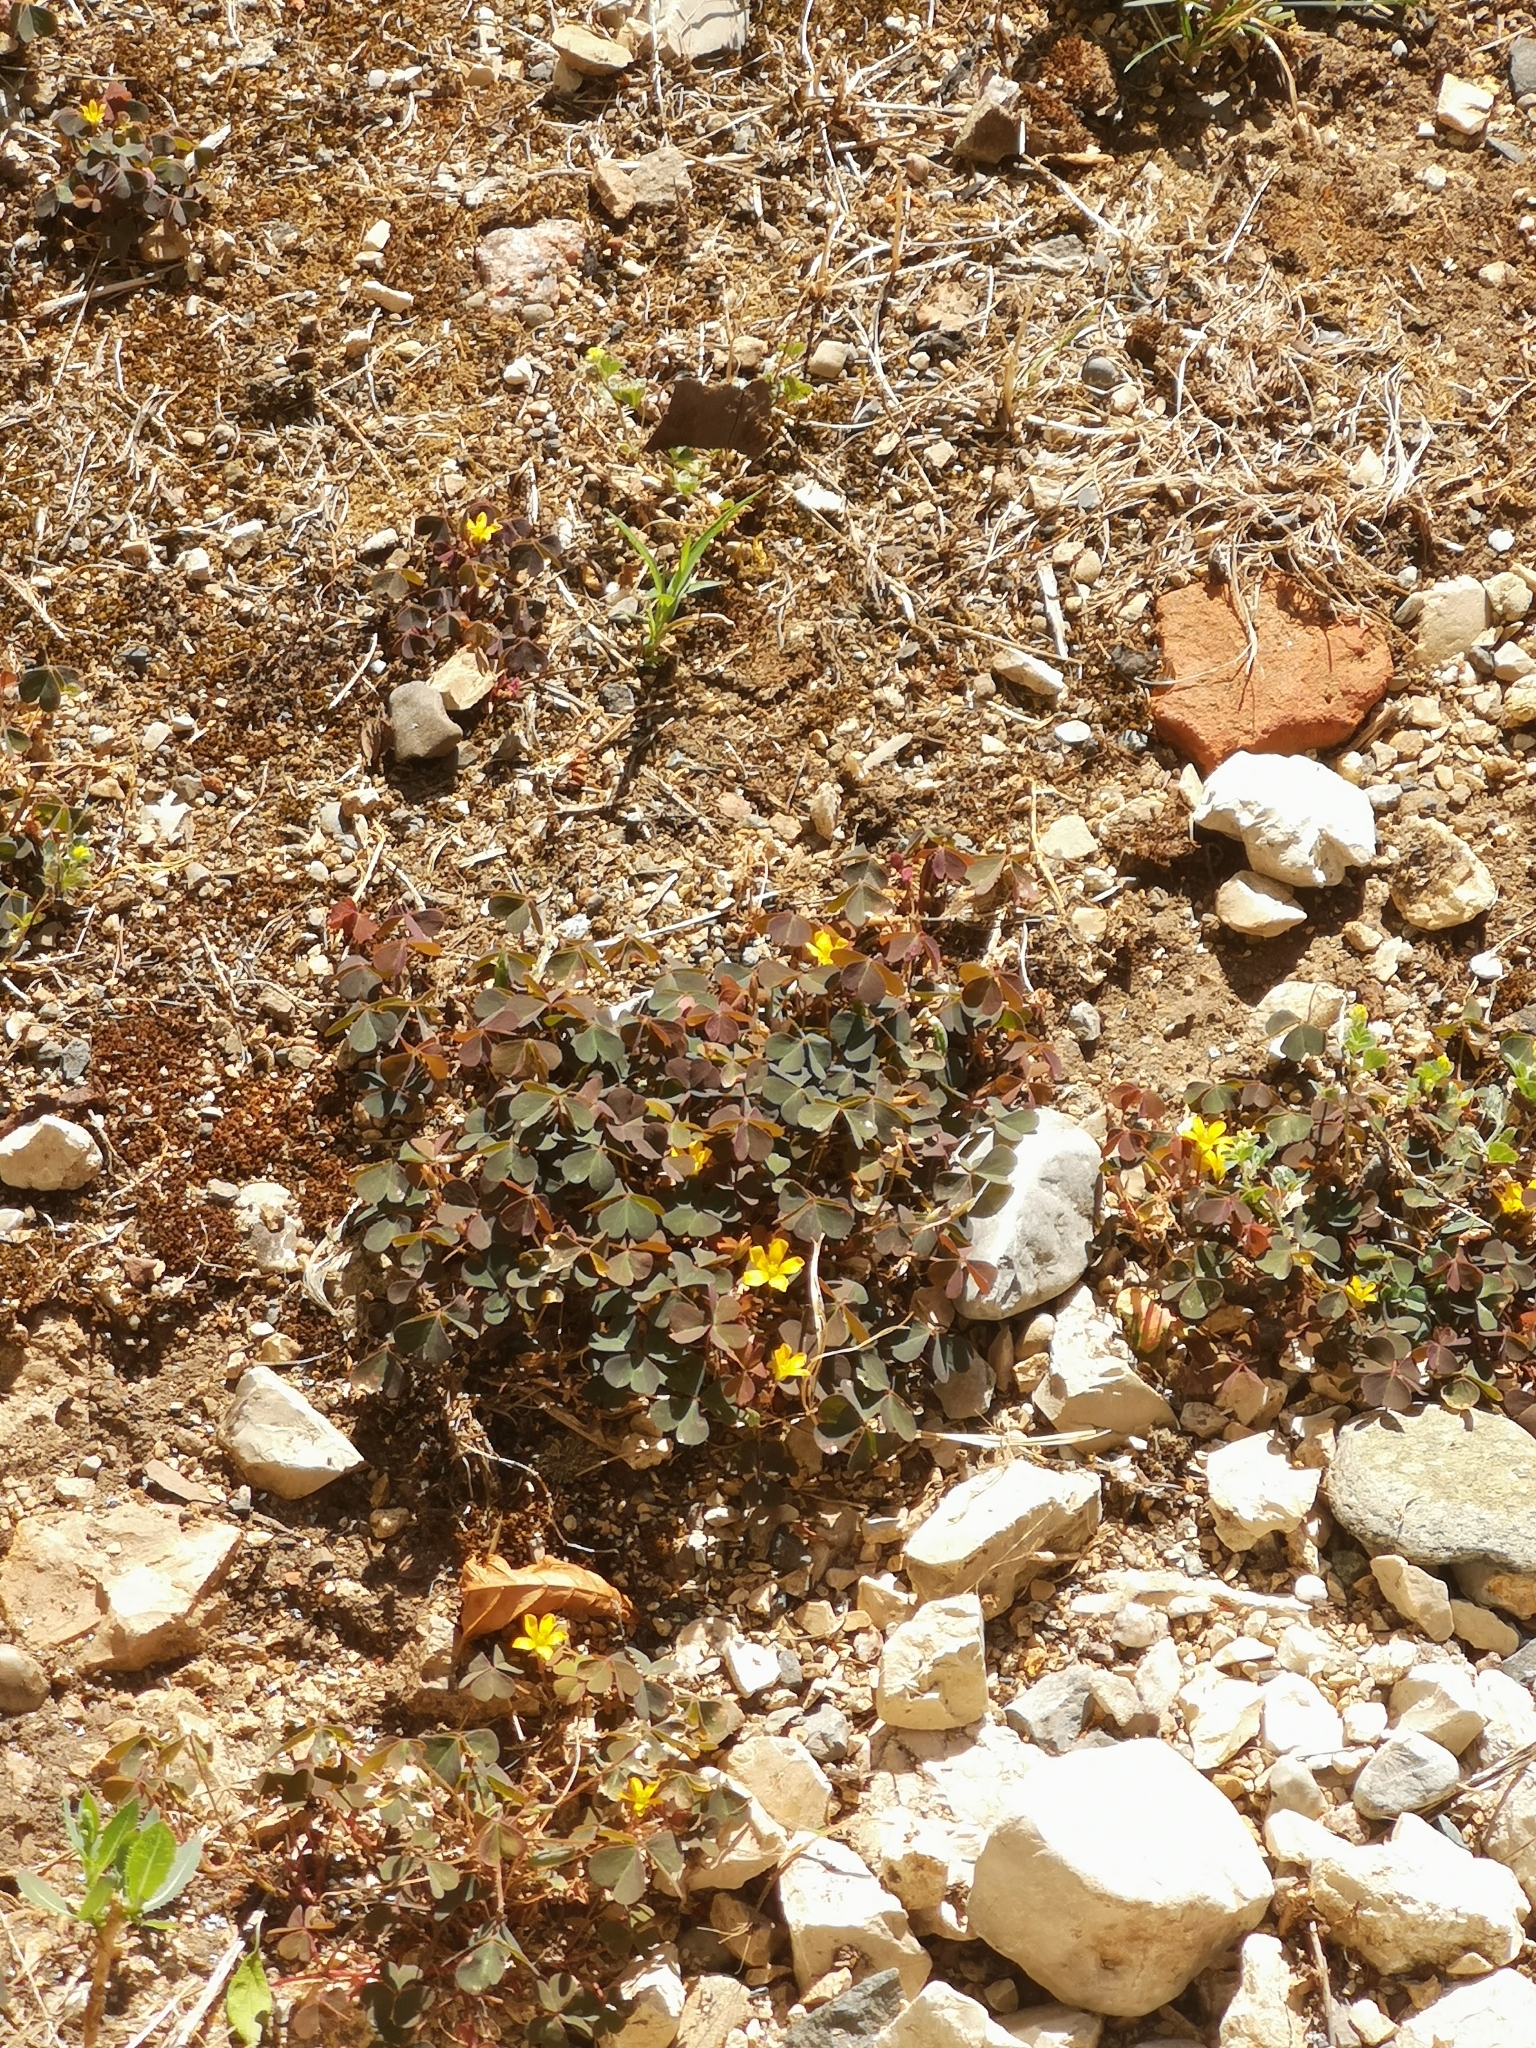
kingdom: Plantae
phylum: Tracheophyta
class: Magnoliopsida
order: Oxalidales
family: Oxalidaceae
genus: Oxalis
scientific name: Oxalis corniculata
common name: Procumbent yellow-sorrel
